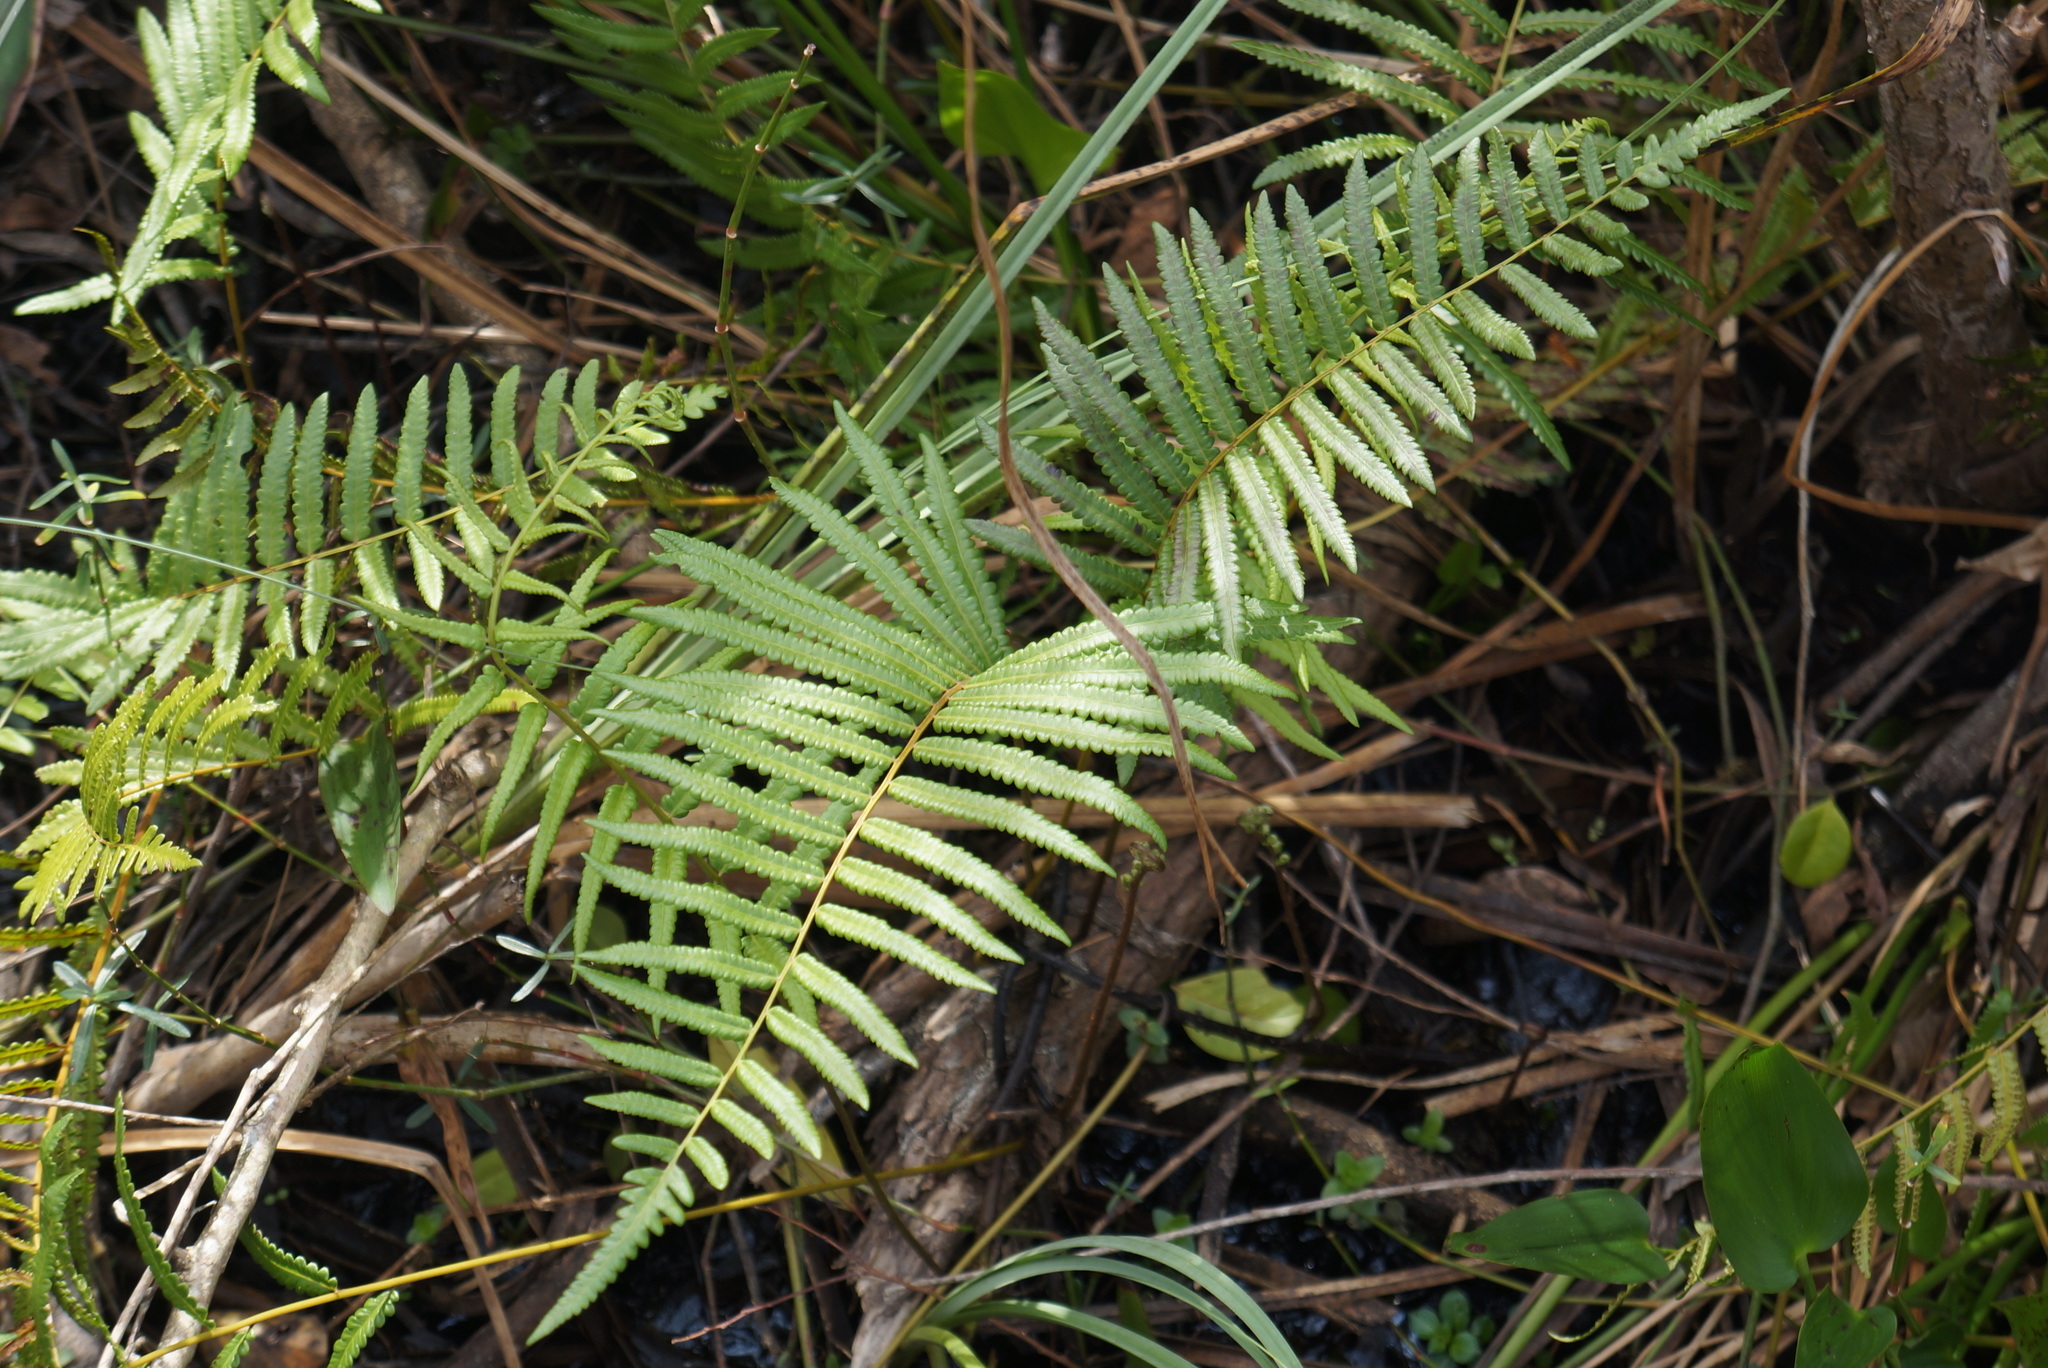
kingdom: Plantae
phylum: Tracheophyta
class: Polypodiopsida
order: Polypodiales
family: Thelypteridaceae
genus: Cyclosorus
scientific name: Cyclosorus interruptus
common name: Neke fern
